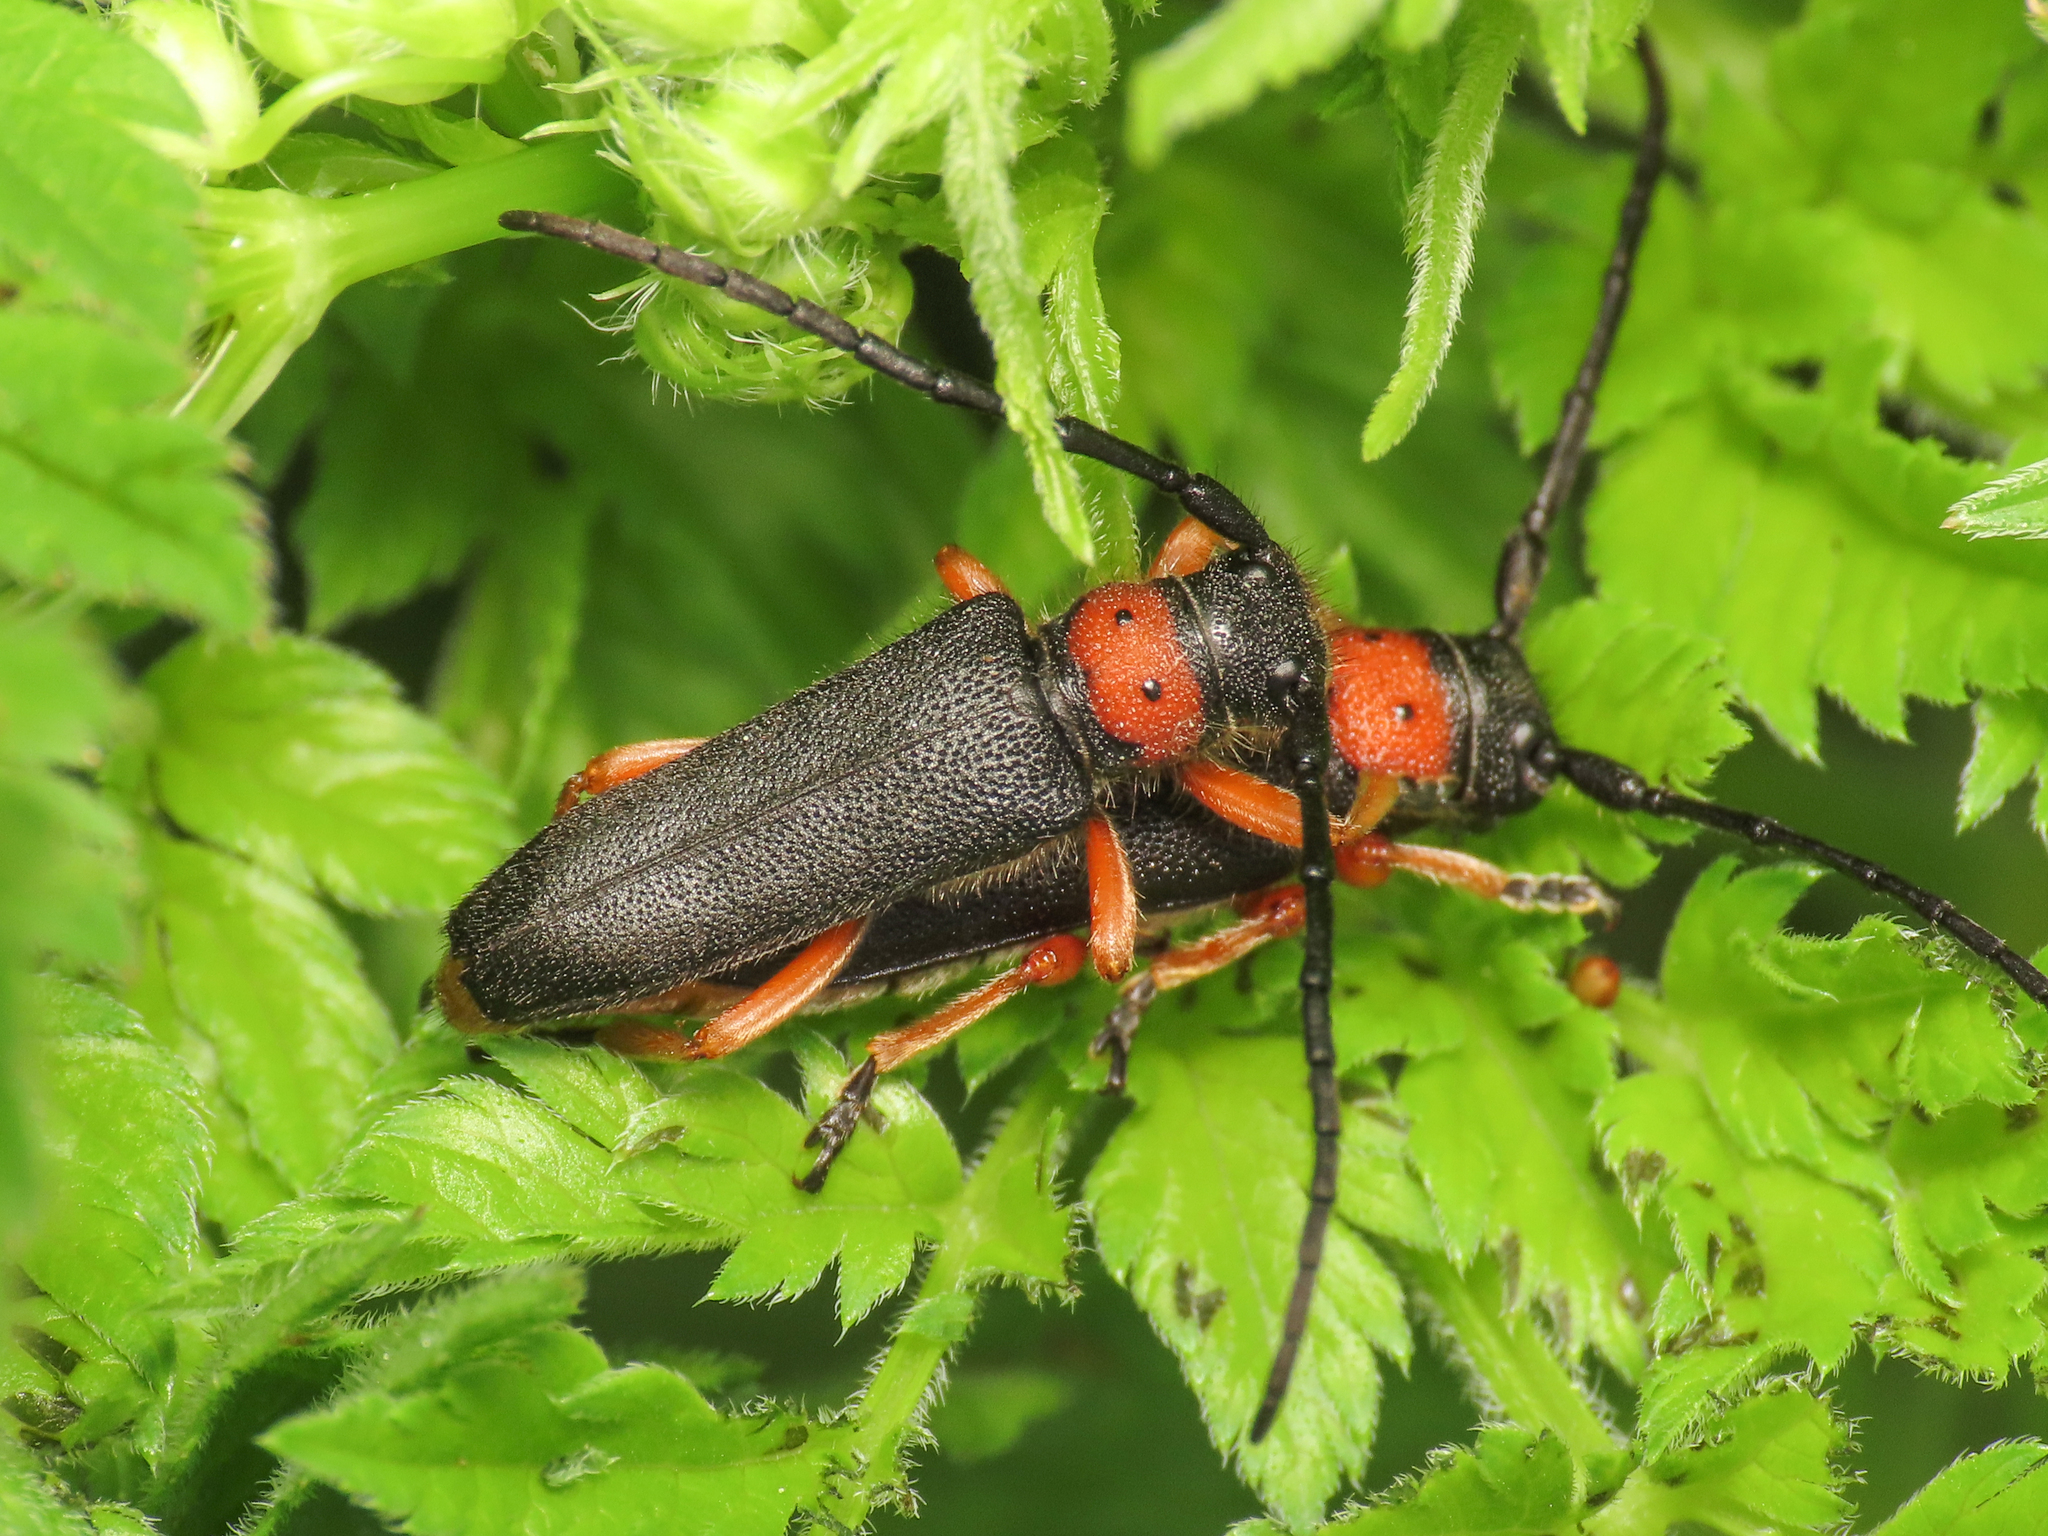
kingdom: Animalia
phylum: Arthropoda
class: Insecta
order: Coleoptera
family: Cerambycidae
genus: Phytoecia
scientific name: Phytoecia affinis
